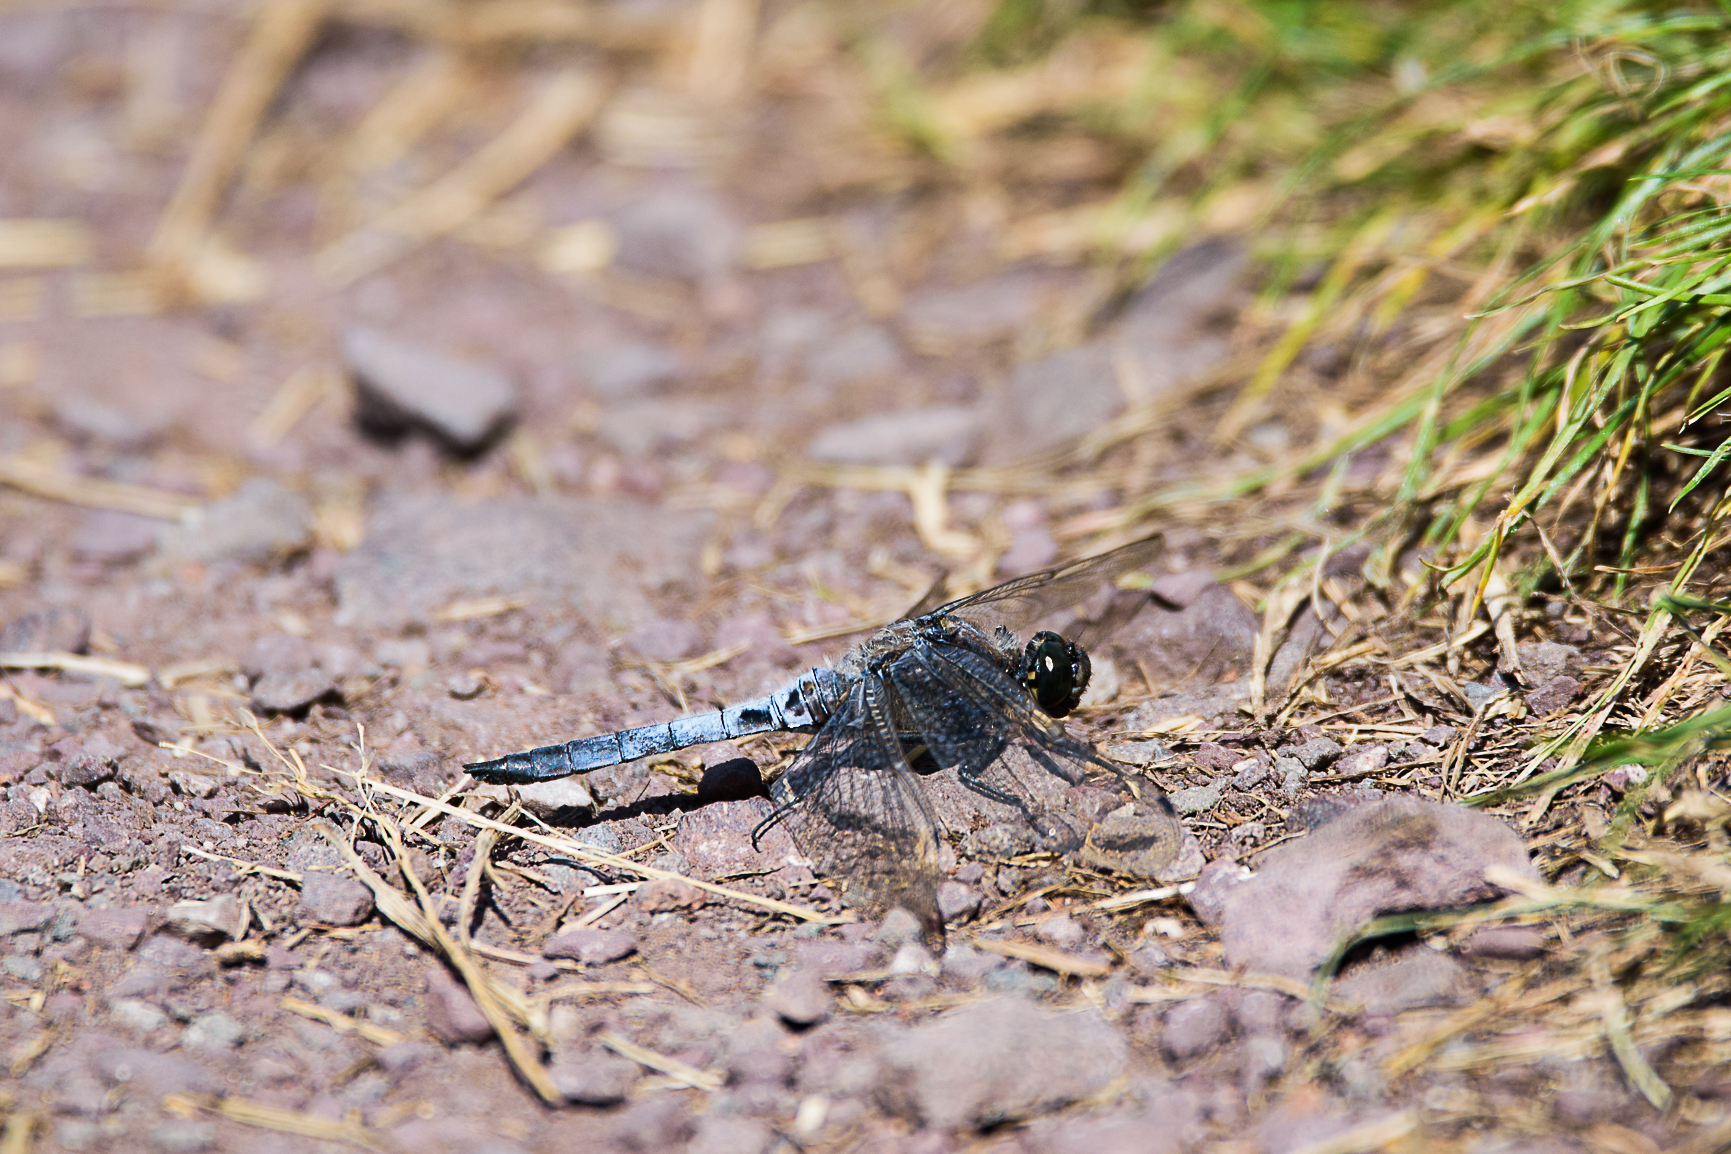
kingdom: Animalia
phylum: Arthropoda
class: Insecta
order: Odonata
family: Libellulidae
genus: Orthetrum
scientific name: Orthetrum cancellatum
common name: Black-tailed skimmer
